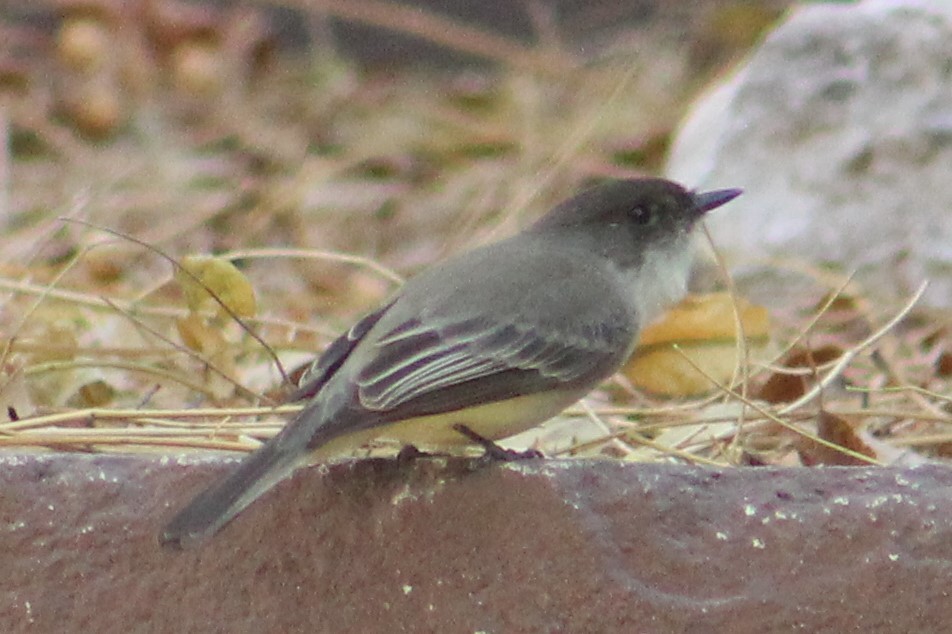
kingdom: Animalia
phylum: Chordata
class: Aves
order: Passeriformes
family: Tyrannidae
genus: Sayornis
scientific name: Sayornis phoebe
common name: Eastern phoebe
